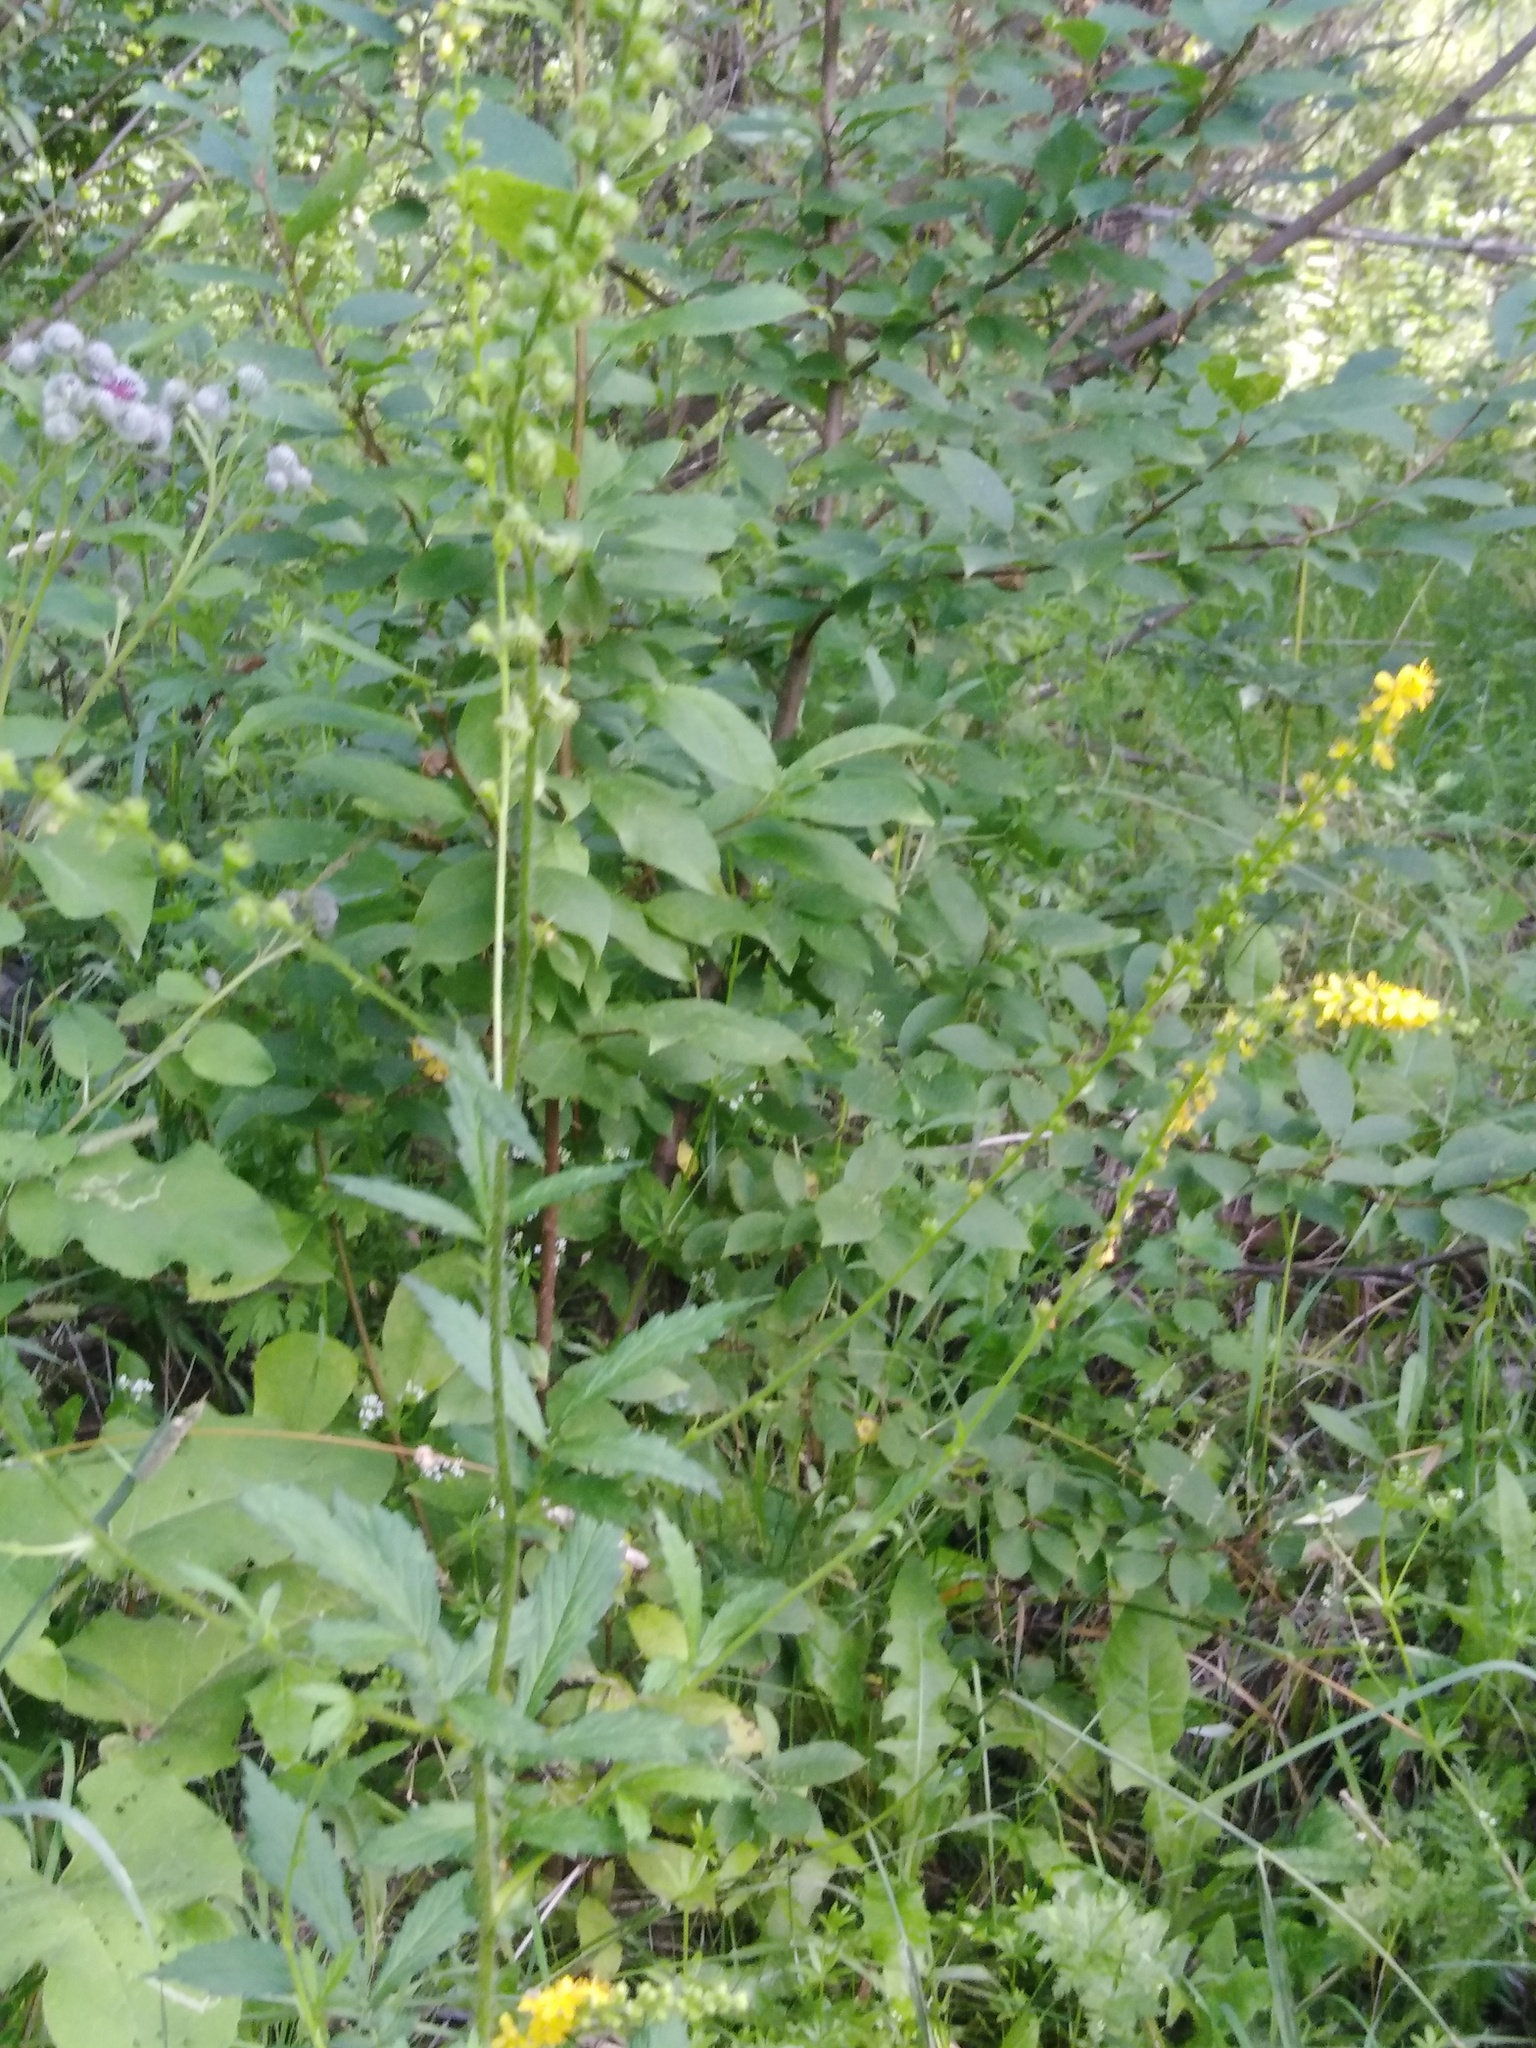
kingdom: Plantae
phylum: Tracheophyta
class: Magnoliopsida
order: Rosales
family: Rosaceae
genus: Agrimonia
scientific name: Agrimonia pilosa
